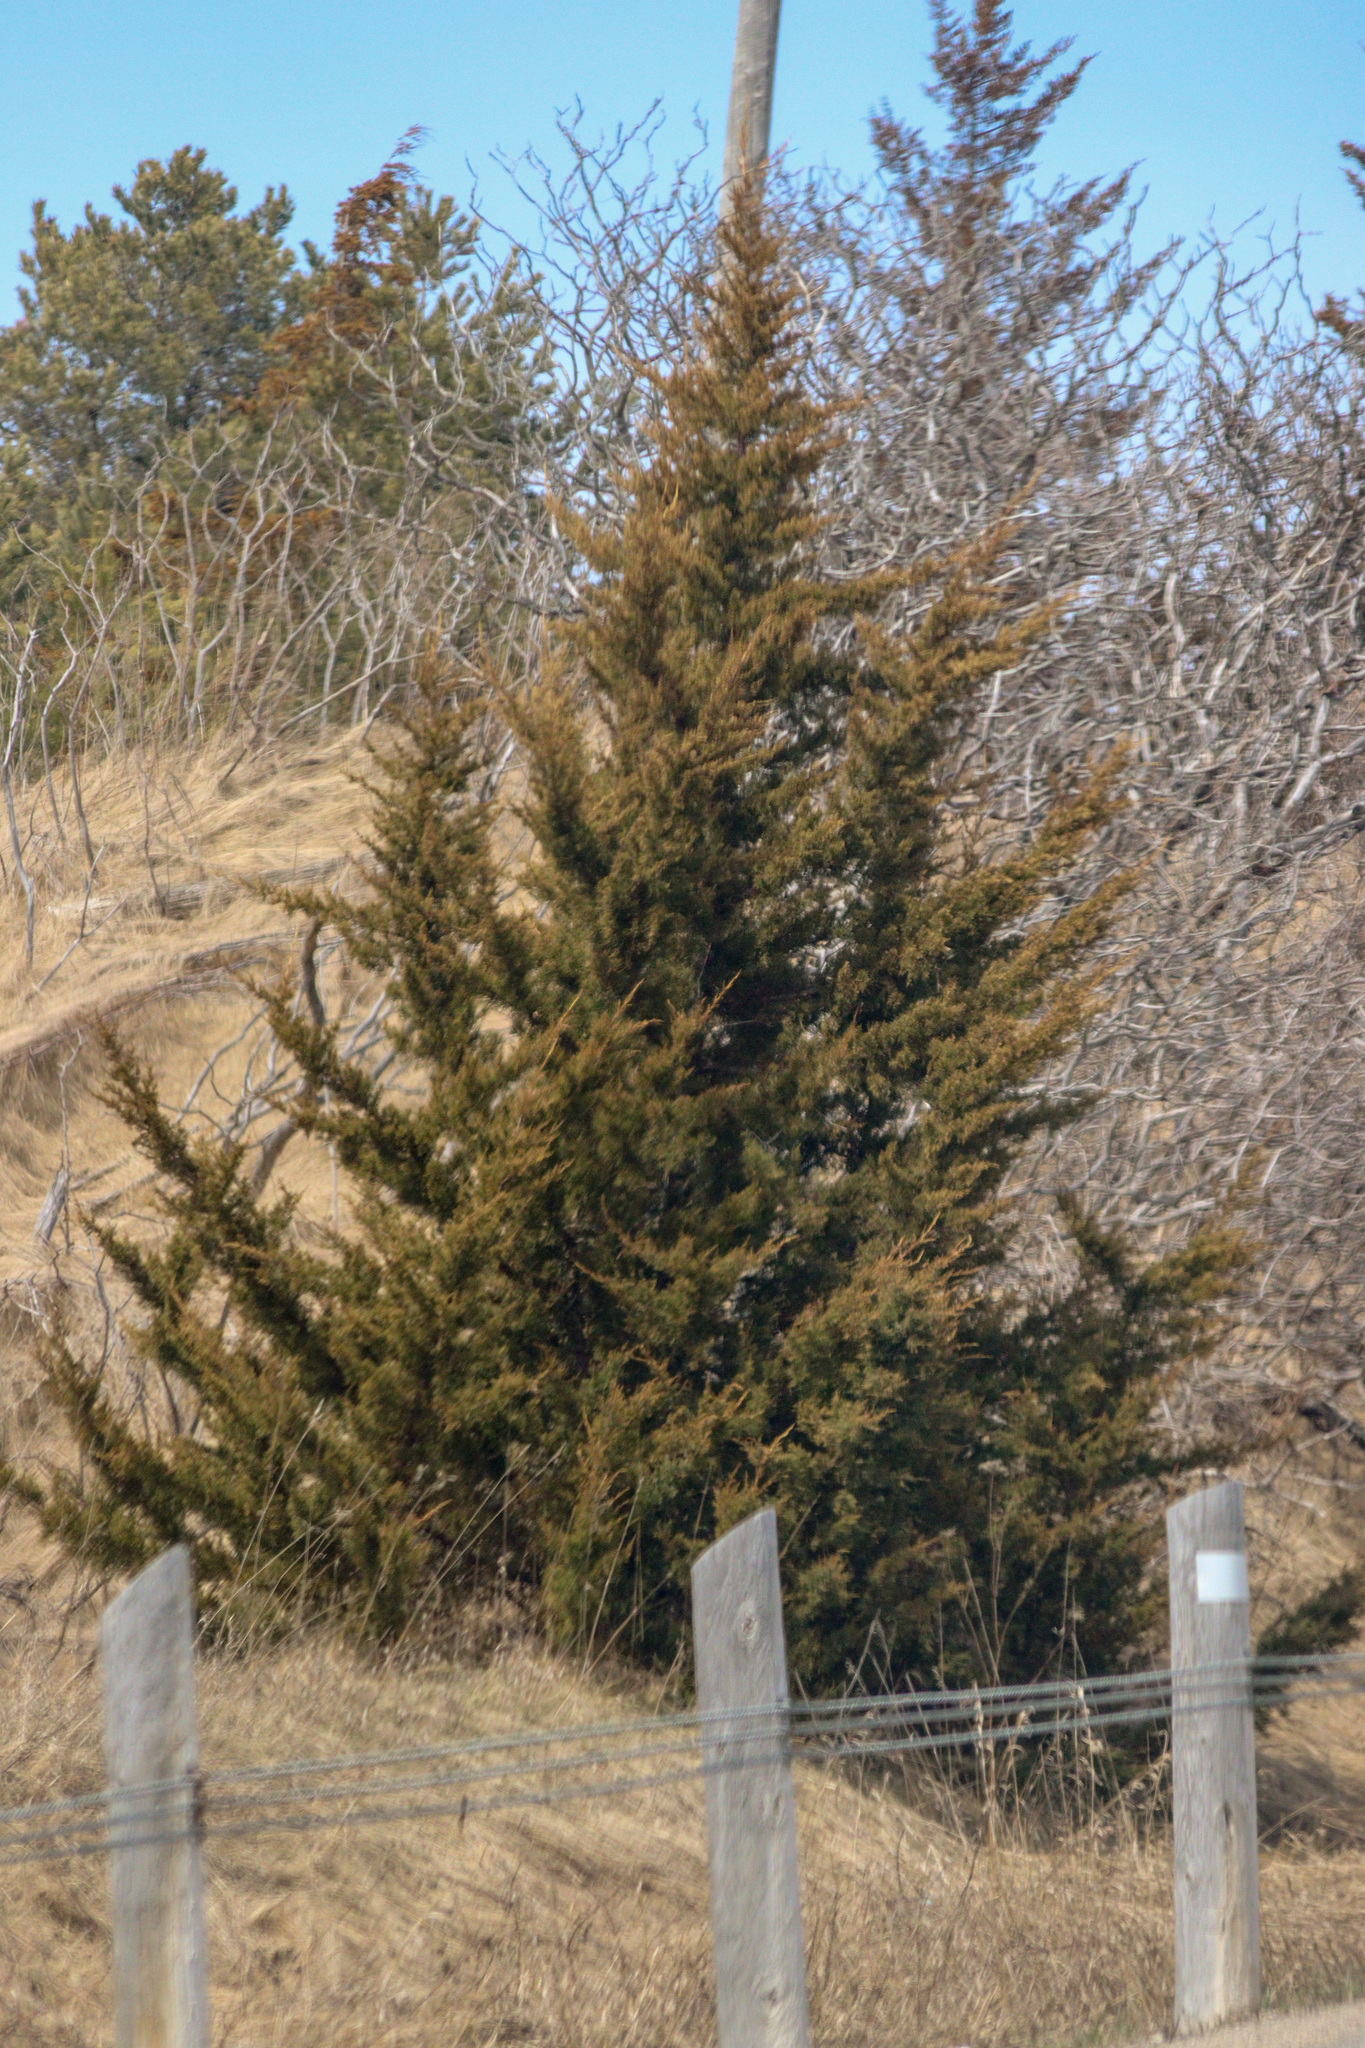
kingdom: Plantae
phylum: Tracheophyta
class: Pinopsida
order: Pinales
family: Cupressaceae
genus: Juniperus
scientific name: Juniperus virginiana
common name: Red juniper
